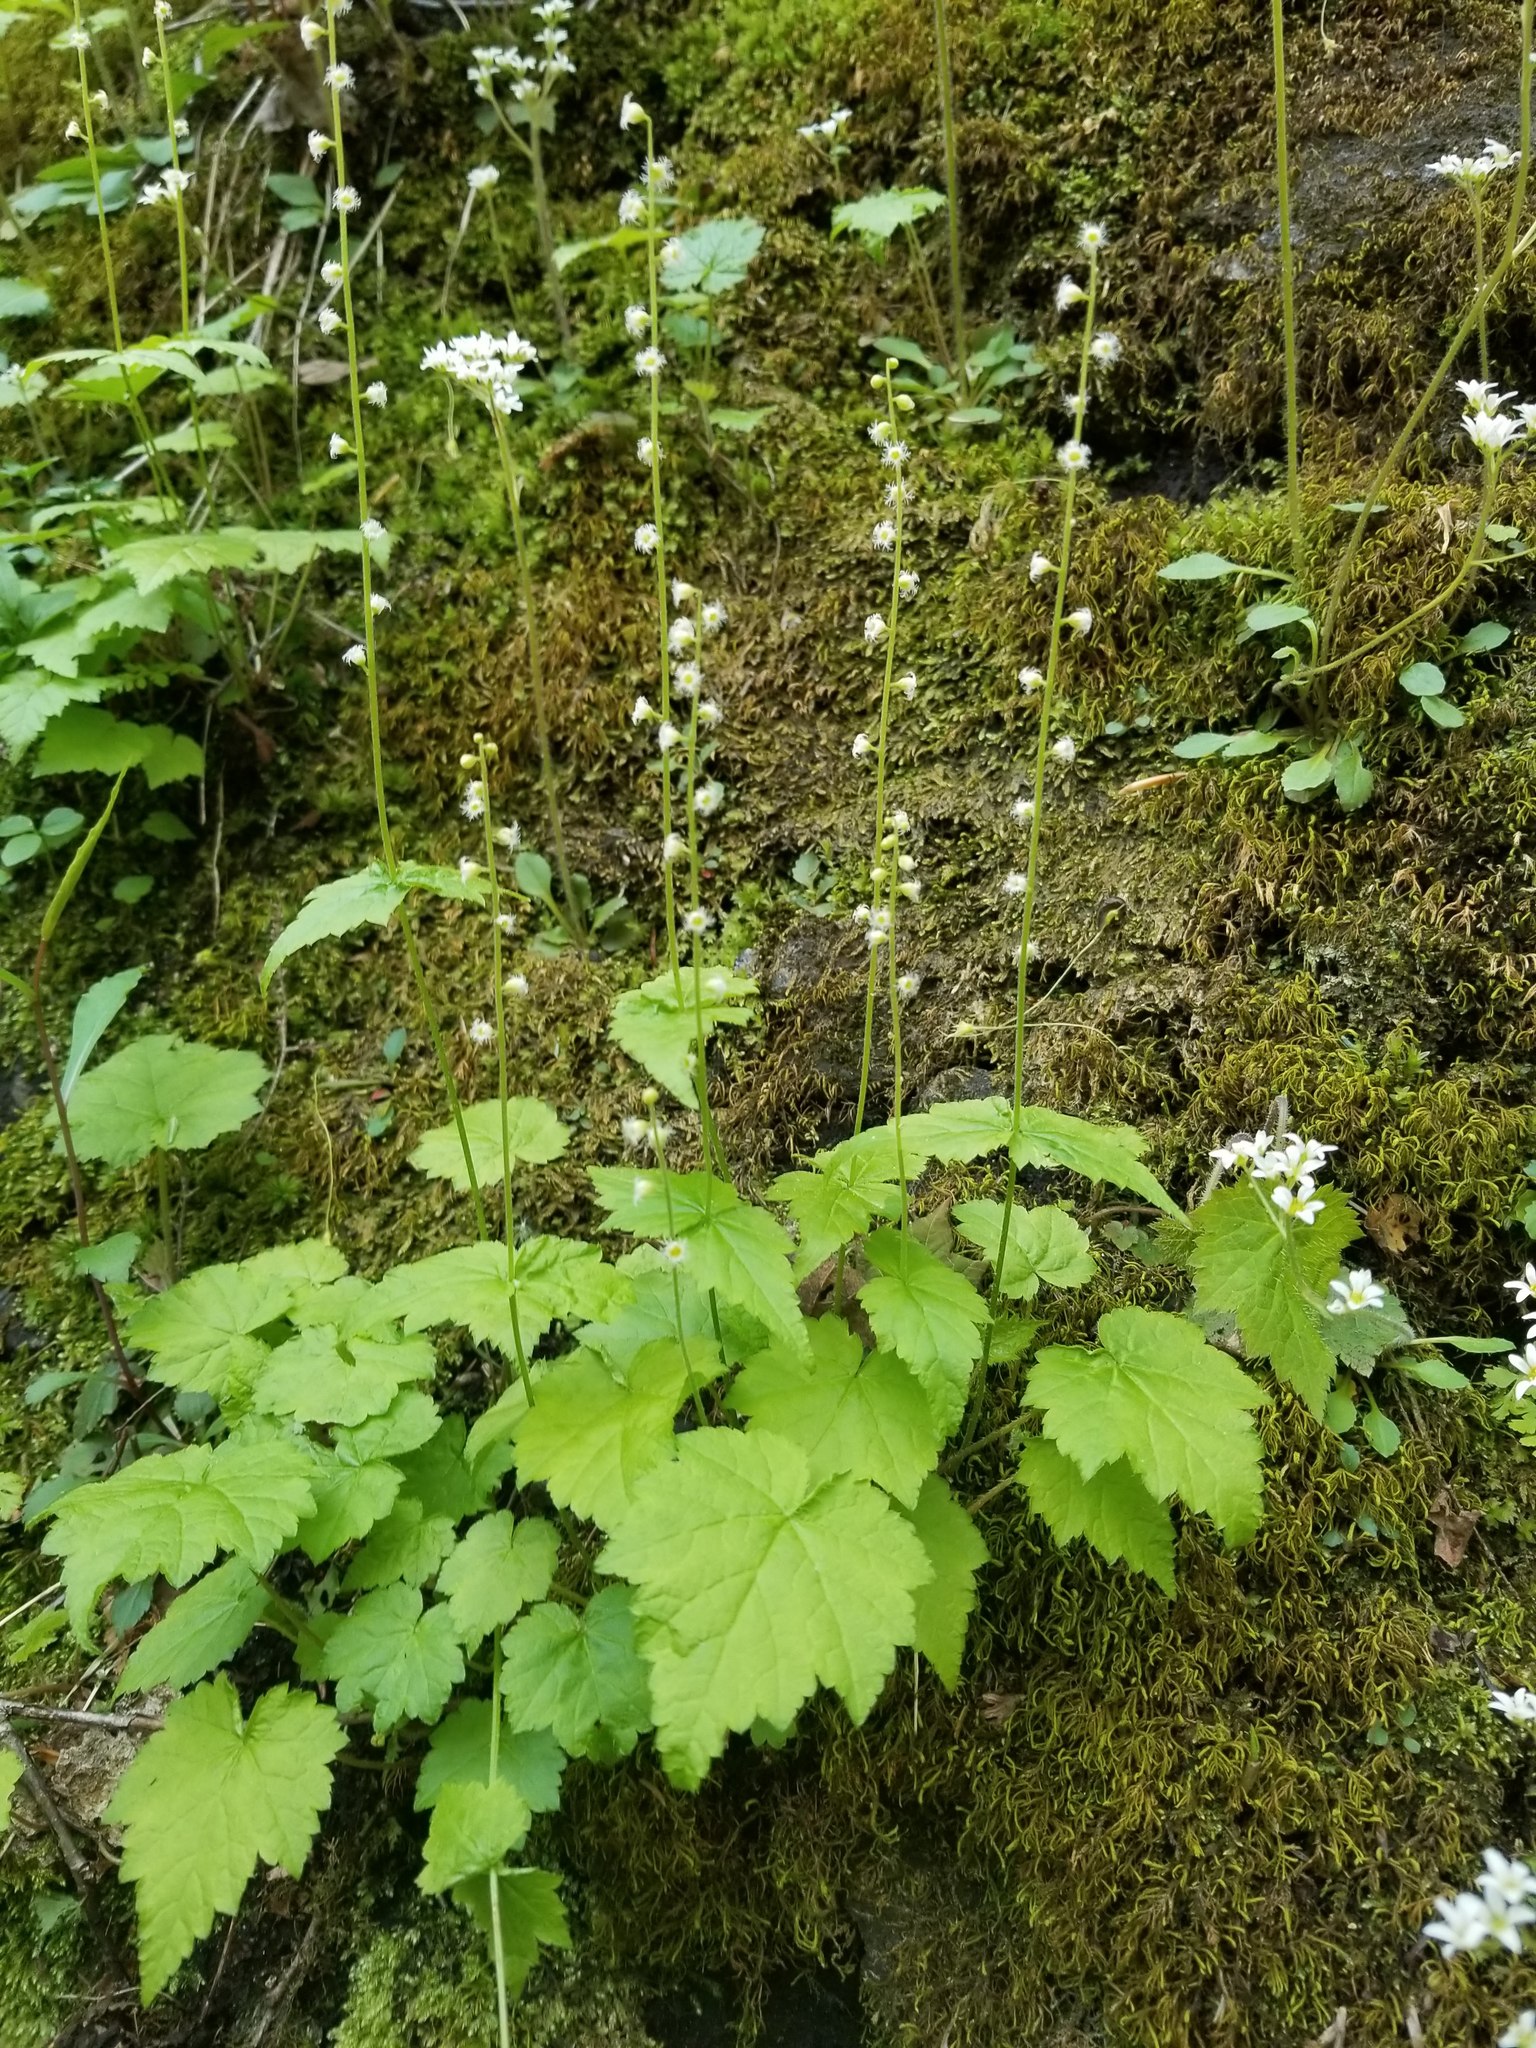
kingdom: Plantae
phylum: Tracheophyta
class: Magnoliopsida
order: Saxifragales
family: Saxifragaceae
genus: Mitella
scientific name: Mitella diphylla
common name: Coolwort
